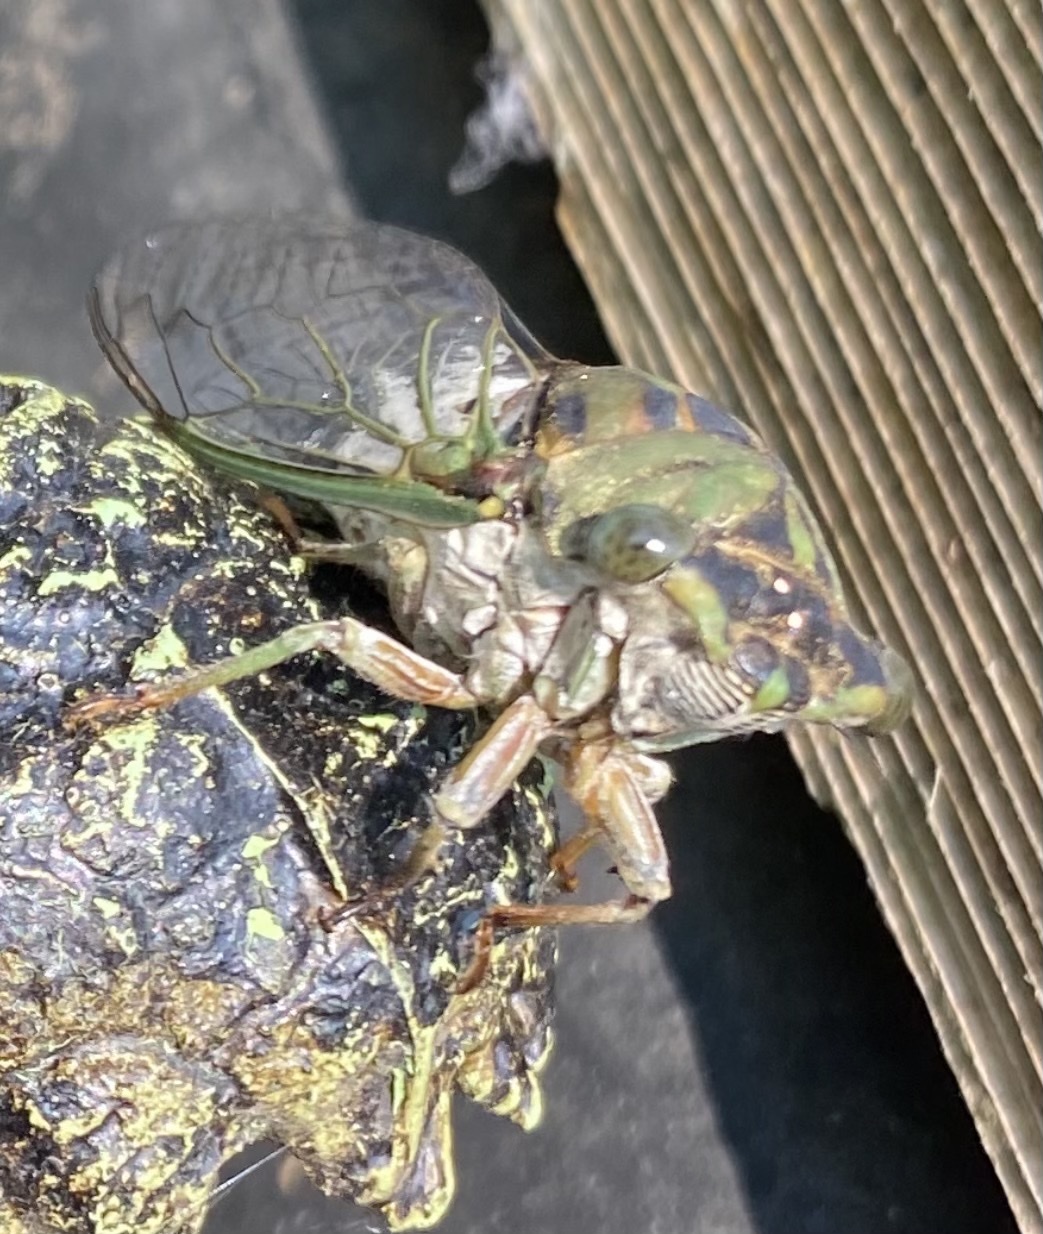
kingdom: Animalia
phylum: Arthropoda
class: Insecta
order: Hemiptera
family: Cicadidae
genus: Neotibicen
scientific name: Neotibicen pruinosus
